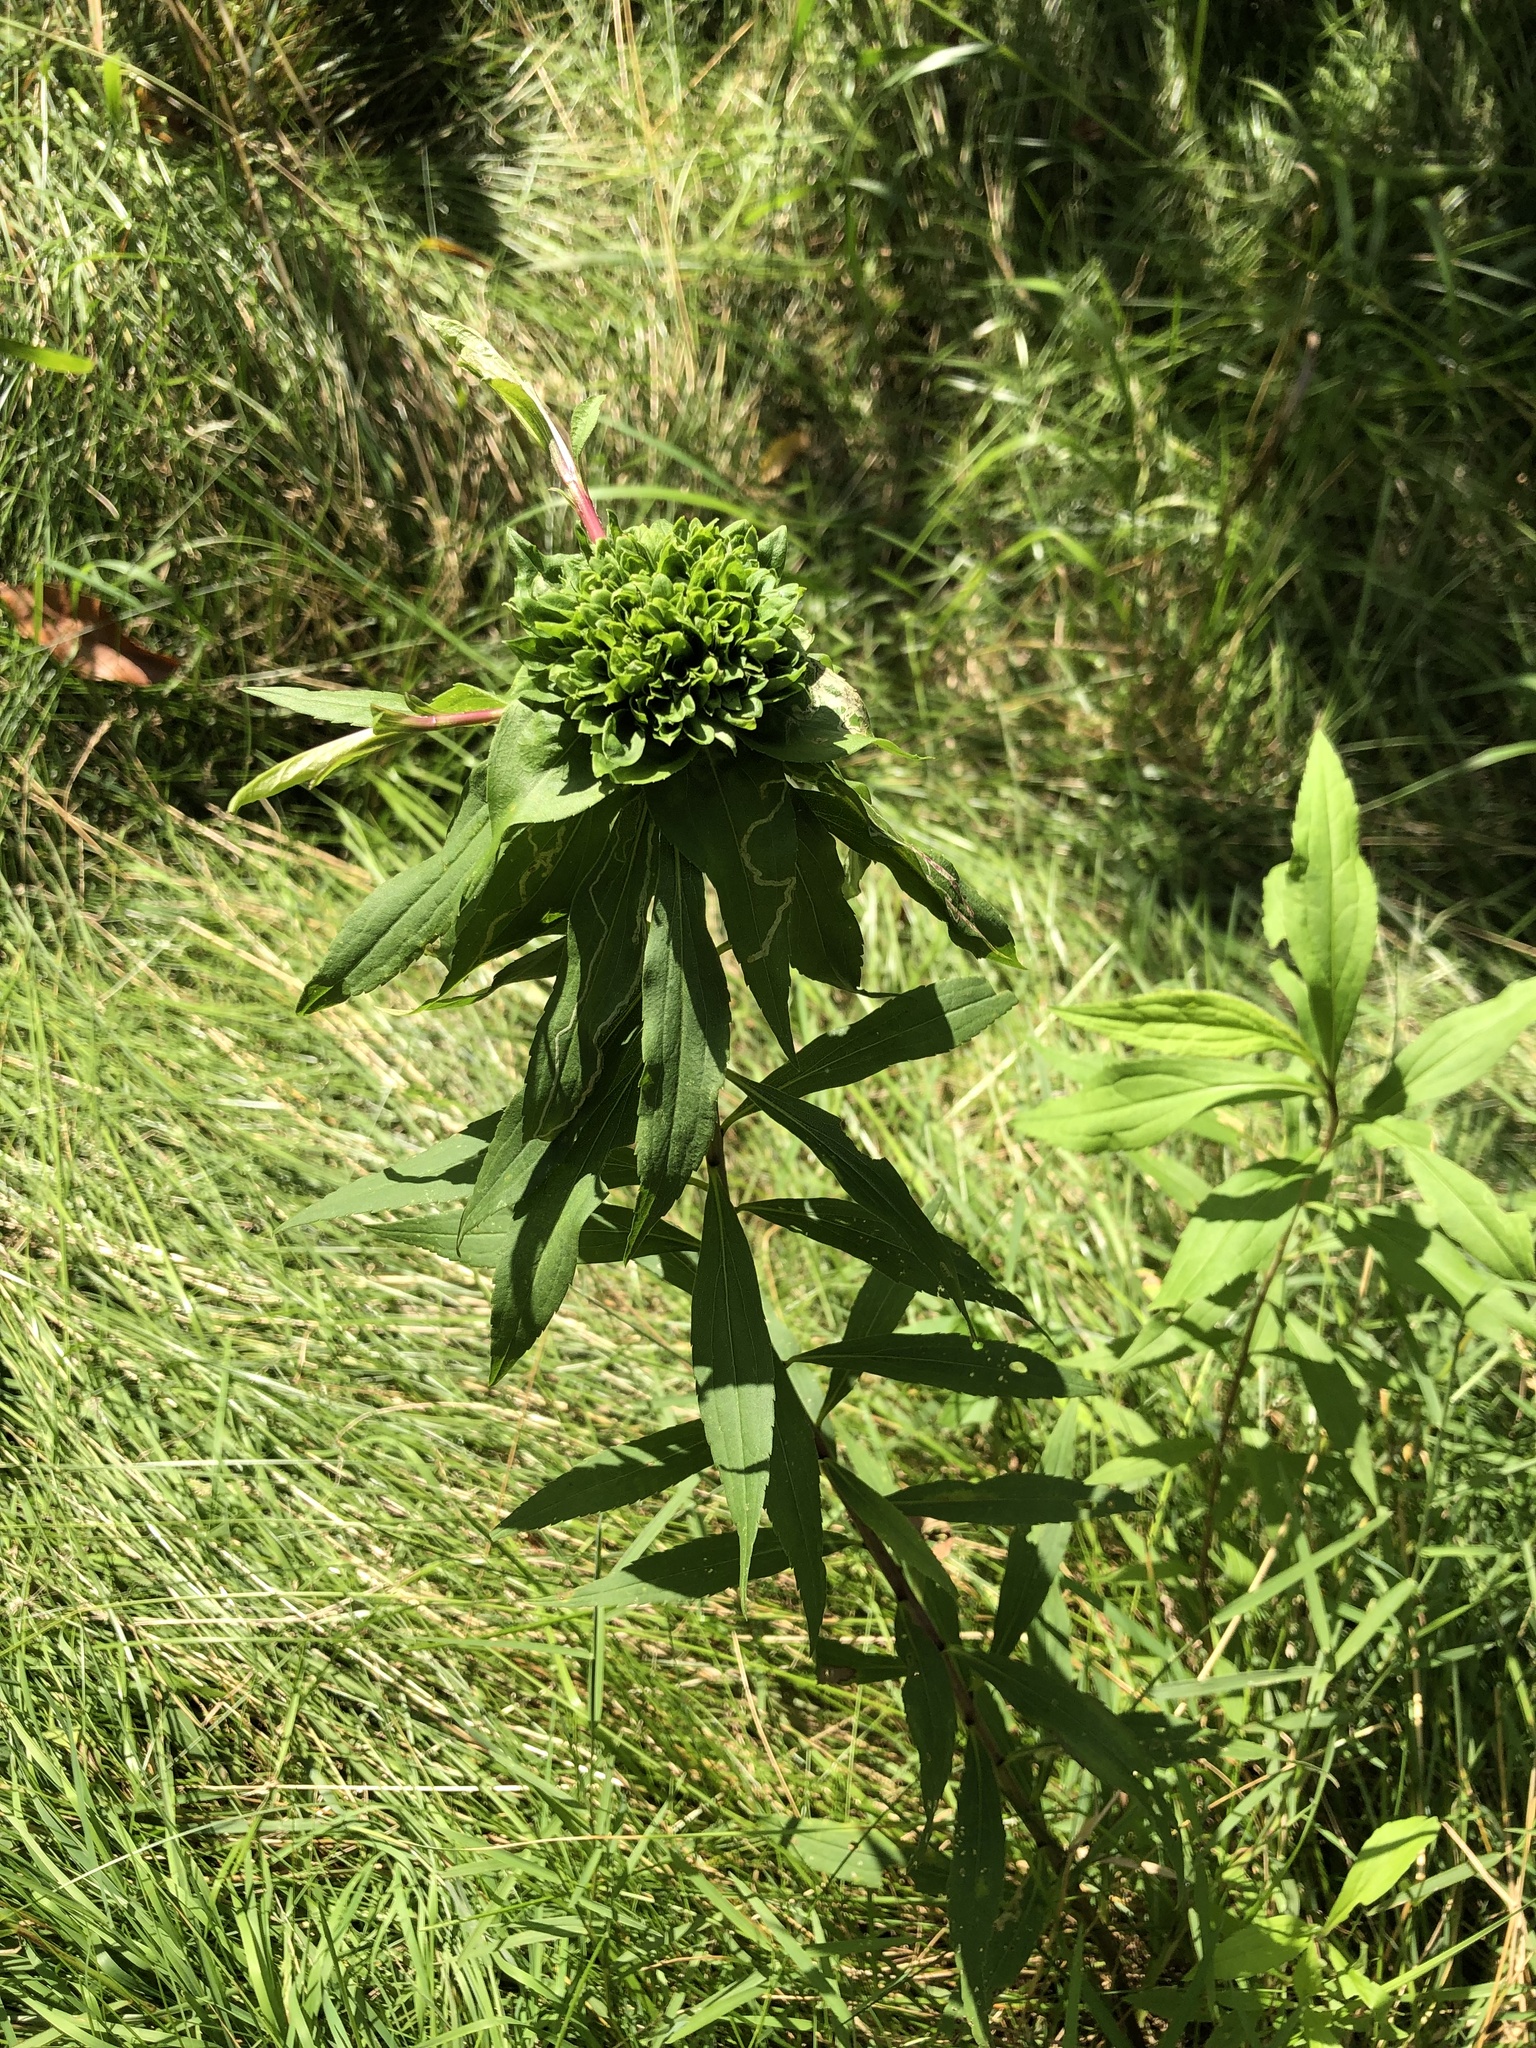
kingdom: Animalia
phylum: Arthropoda
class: Insecta
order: Diptera
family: Cecidomyiidae
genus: Rhopalomyia
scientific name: Rhopalomyia capitata
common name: Giant goldenrod bunch gall midge
